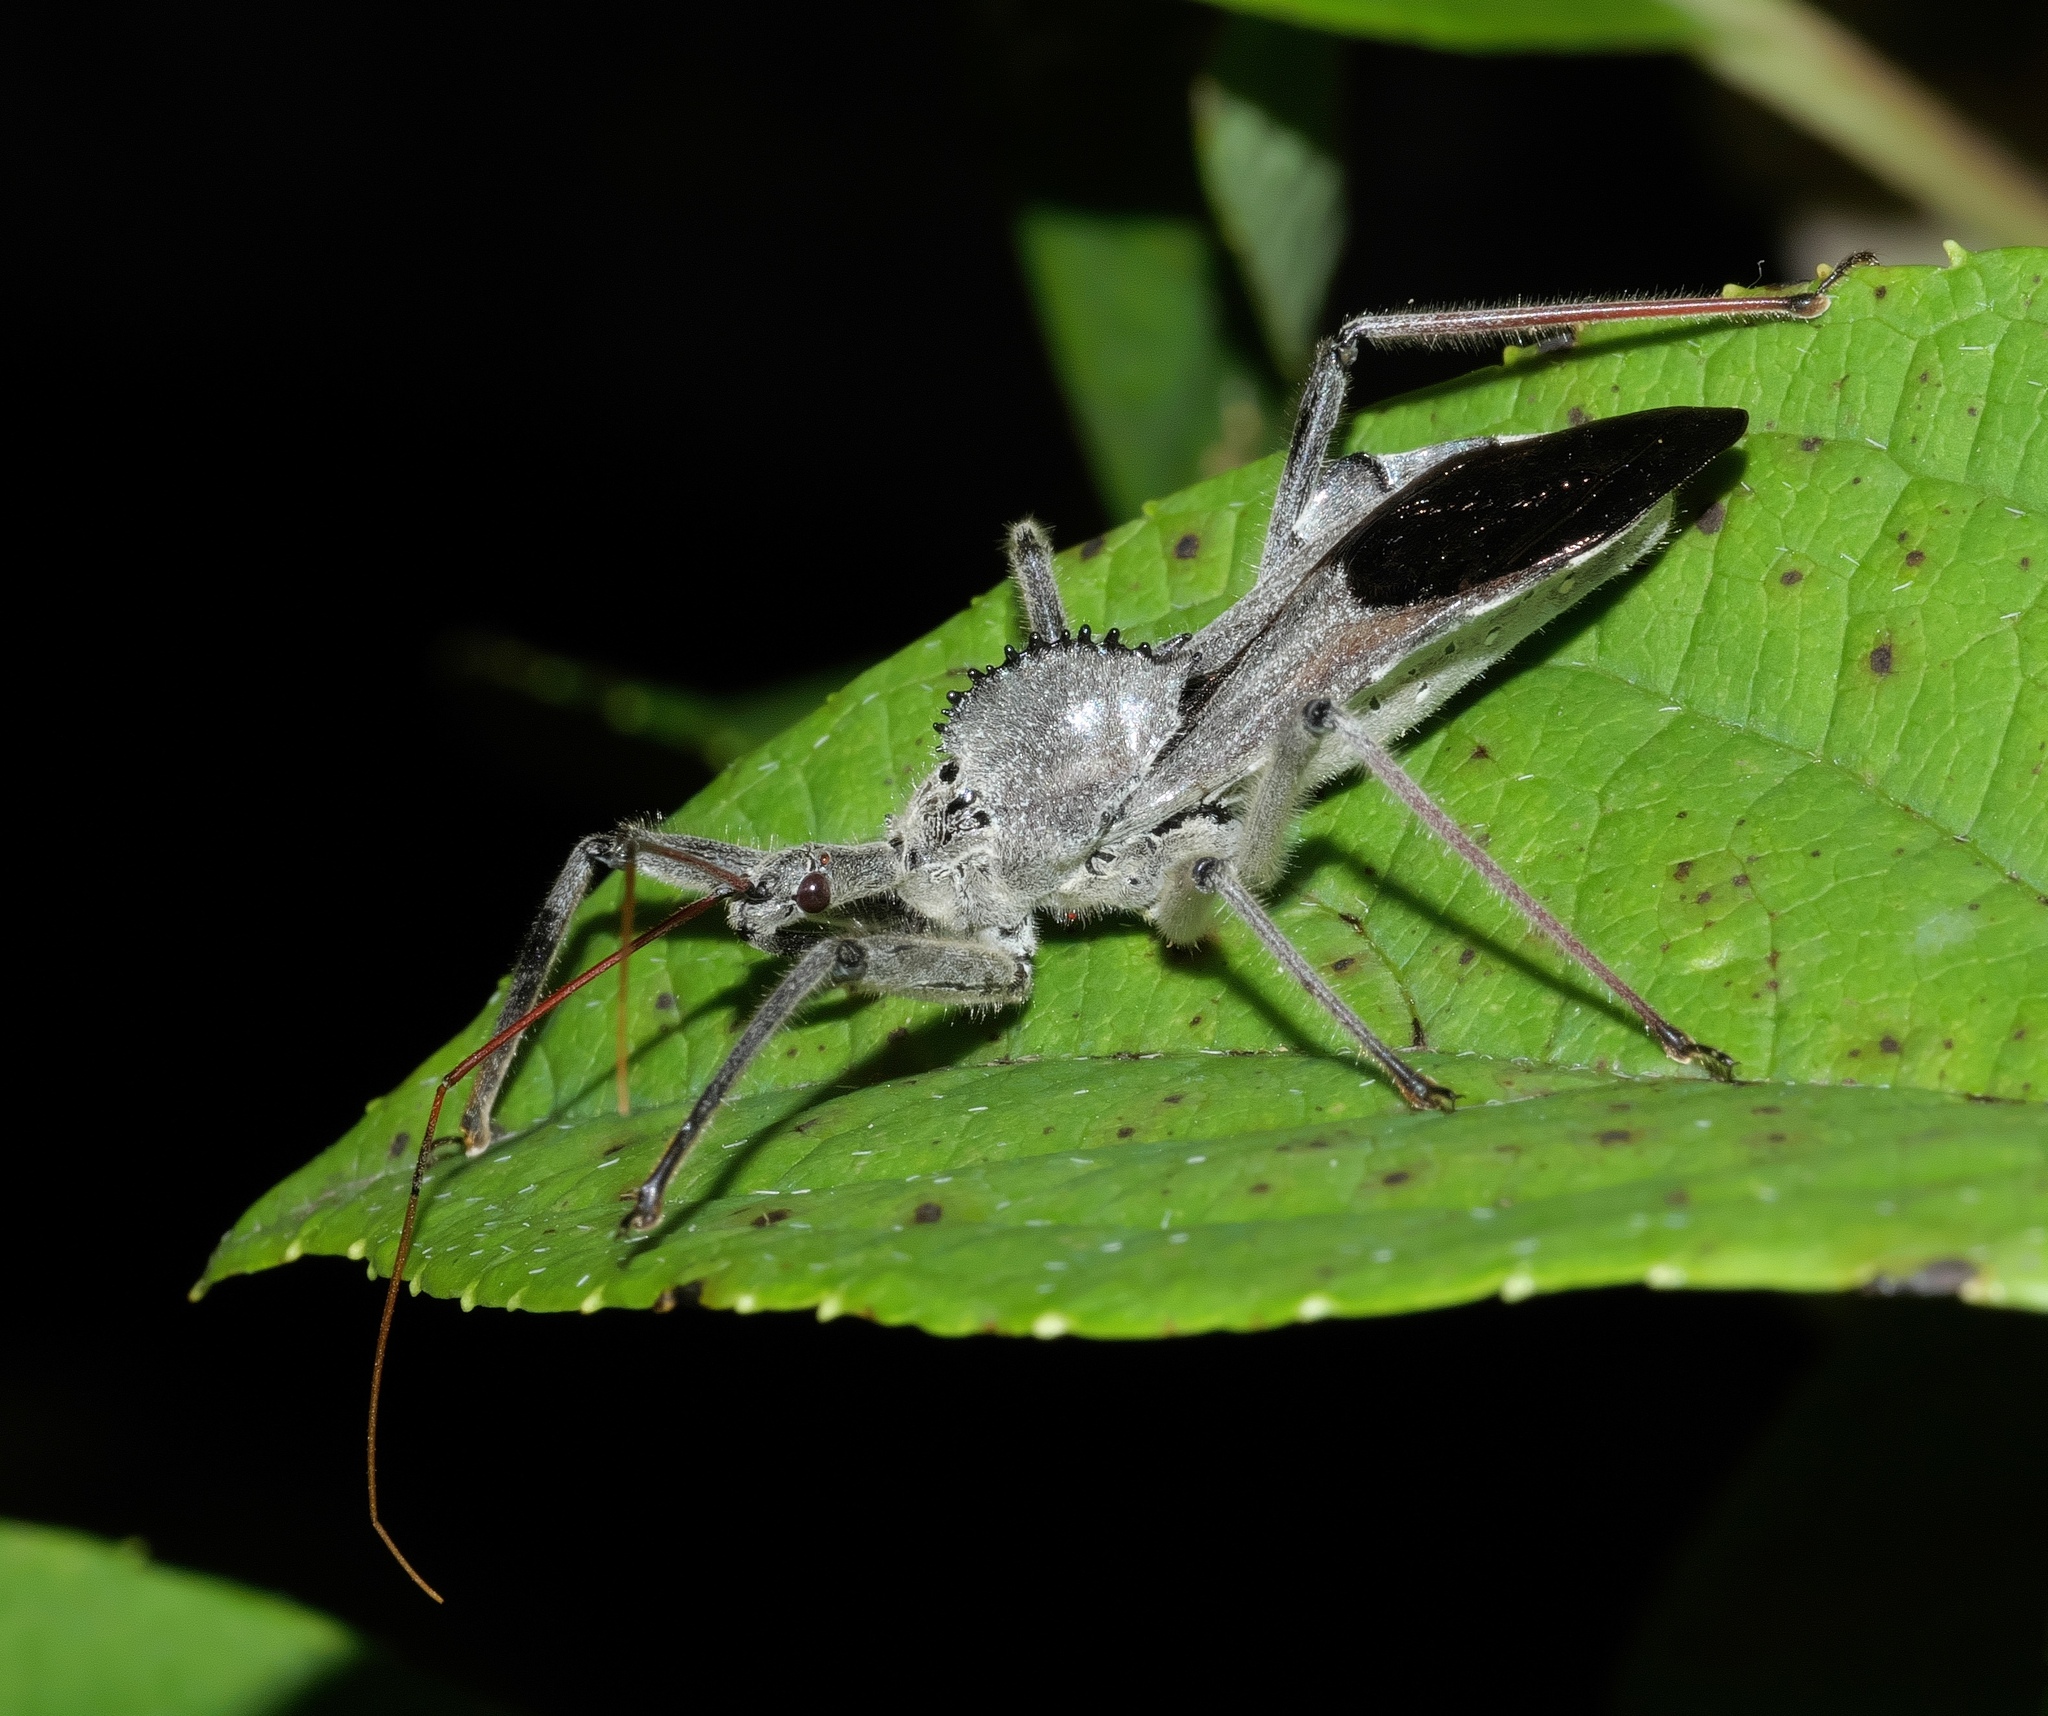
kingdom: Animalia
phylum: Arthropoda
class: Insecta
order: Hemiptera
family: Reduviidae
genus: Arilus
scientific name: Arilus cristatus
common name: North american wheel bug
